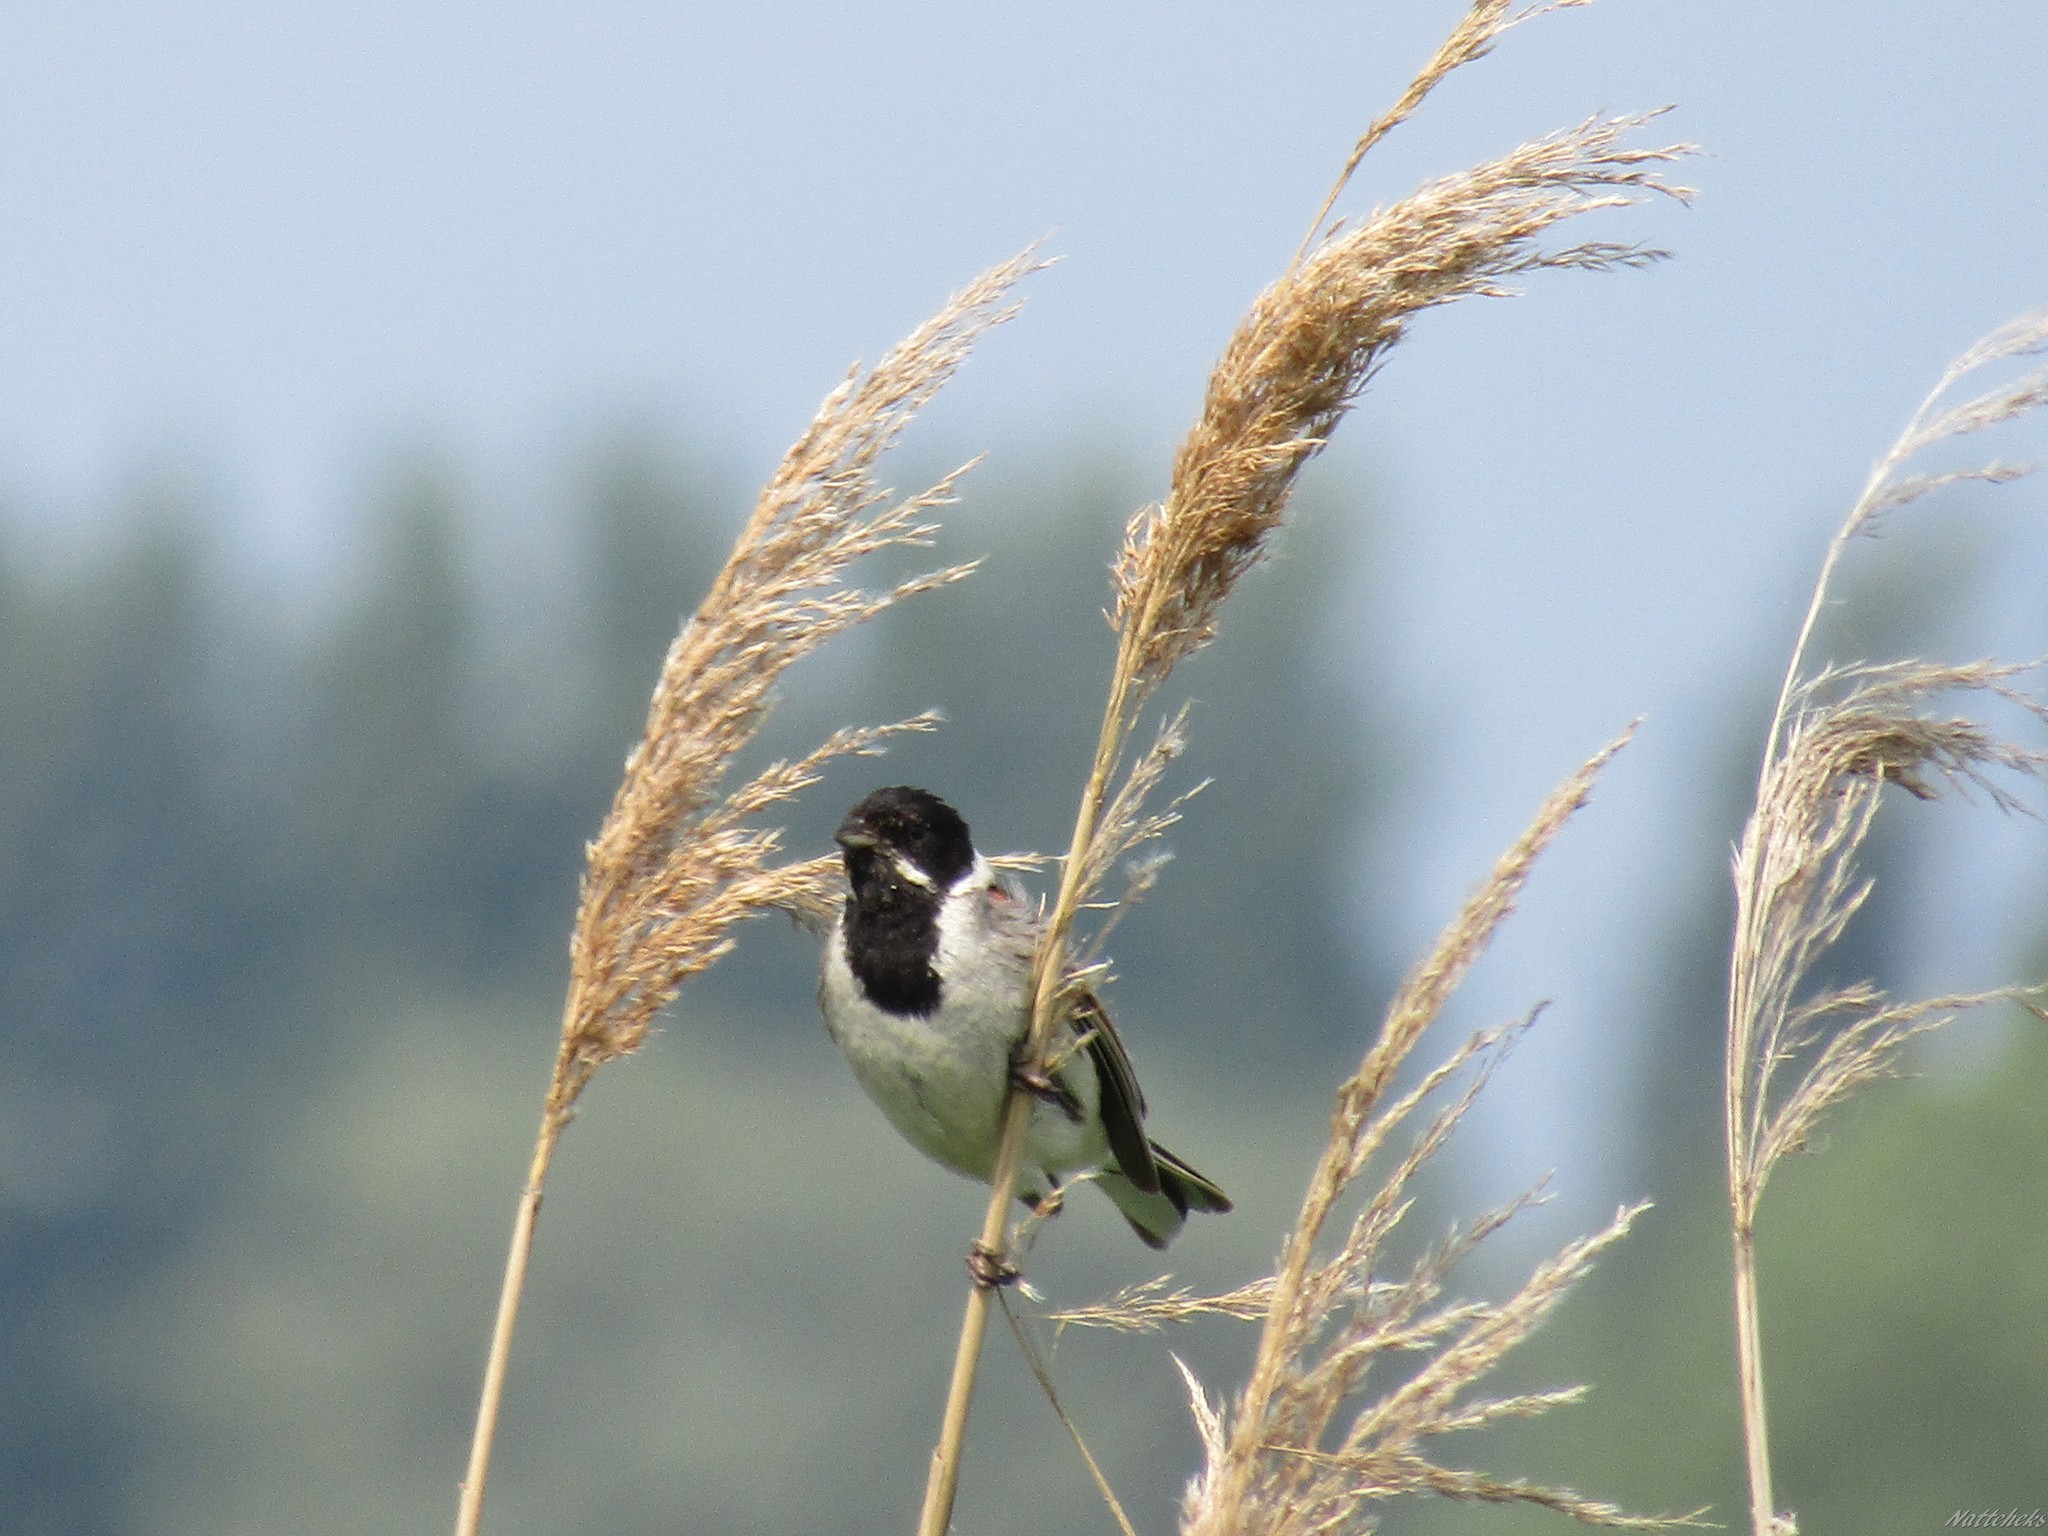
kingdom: Animalia
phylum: Chordata
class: Aves
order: Passeriformes
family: Emberizidae
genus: Emberiza
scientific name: Emberiza schoeniclus
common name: Reed bunting
